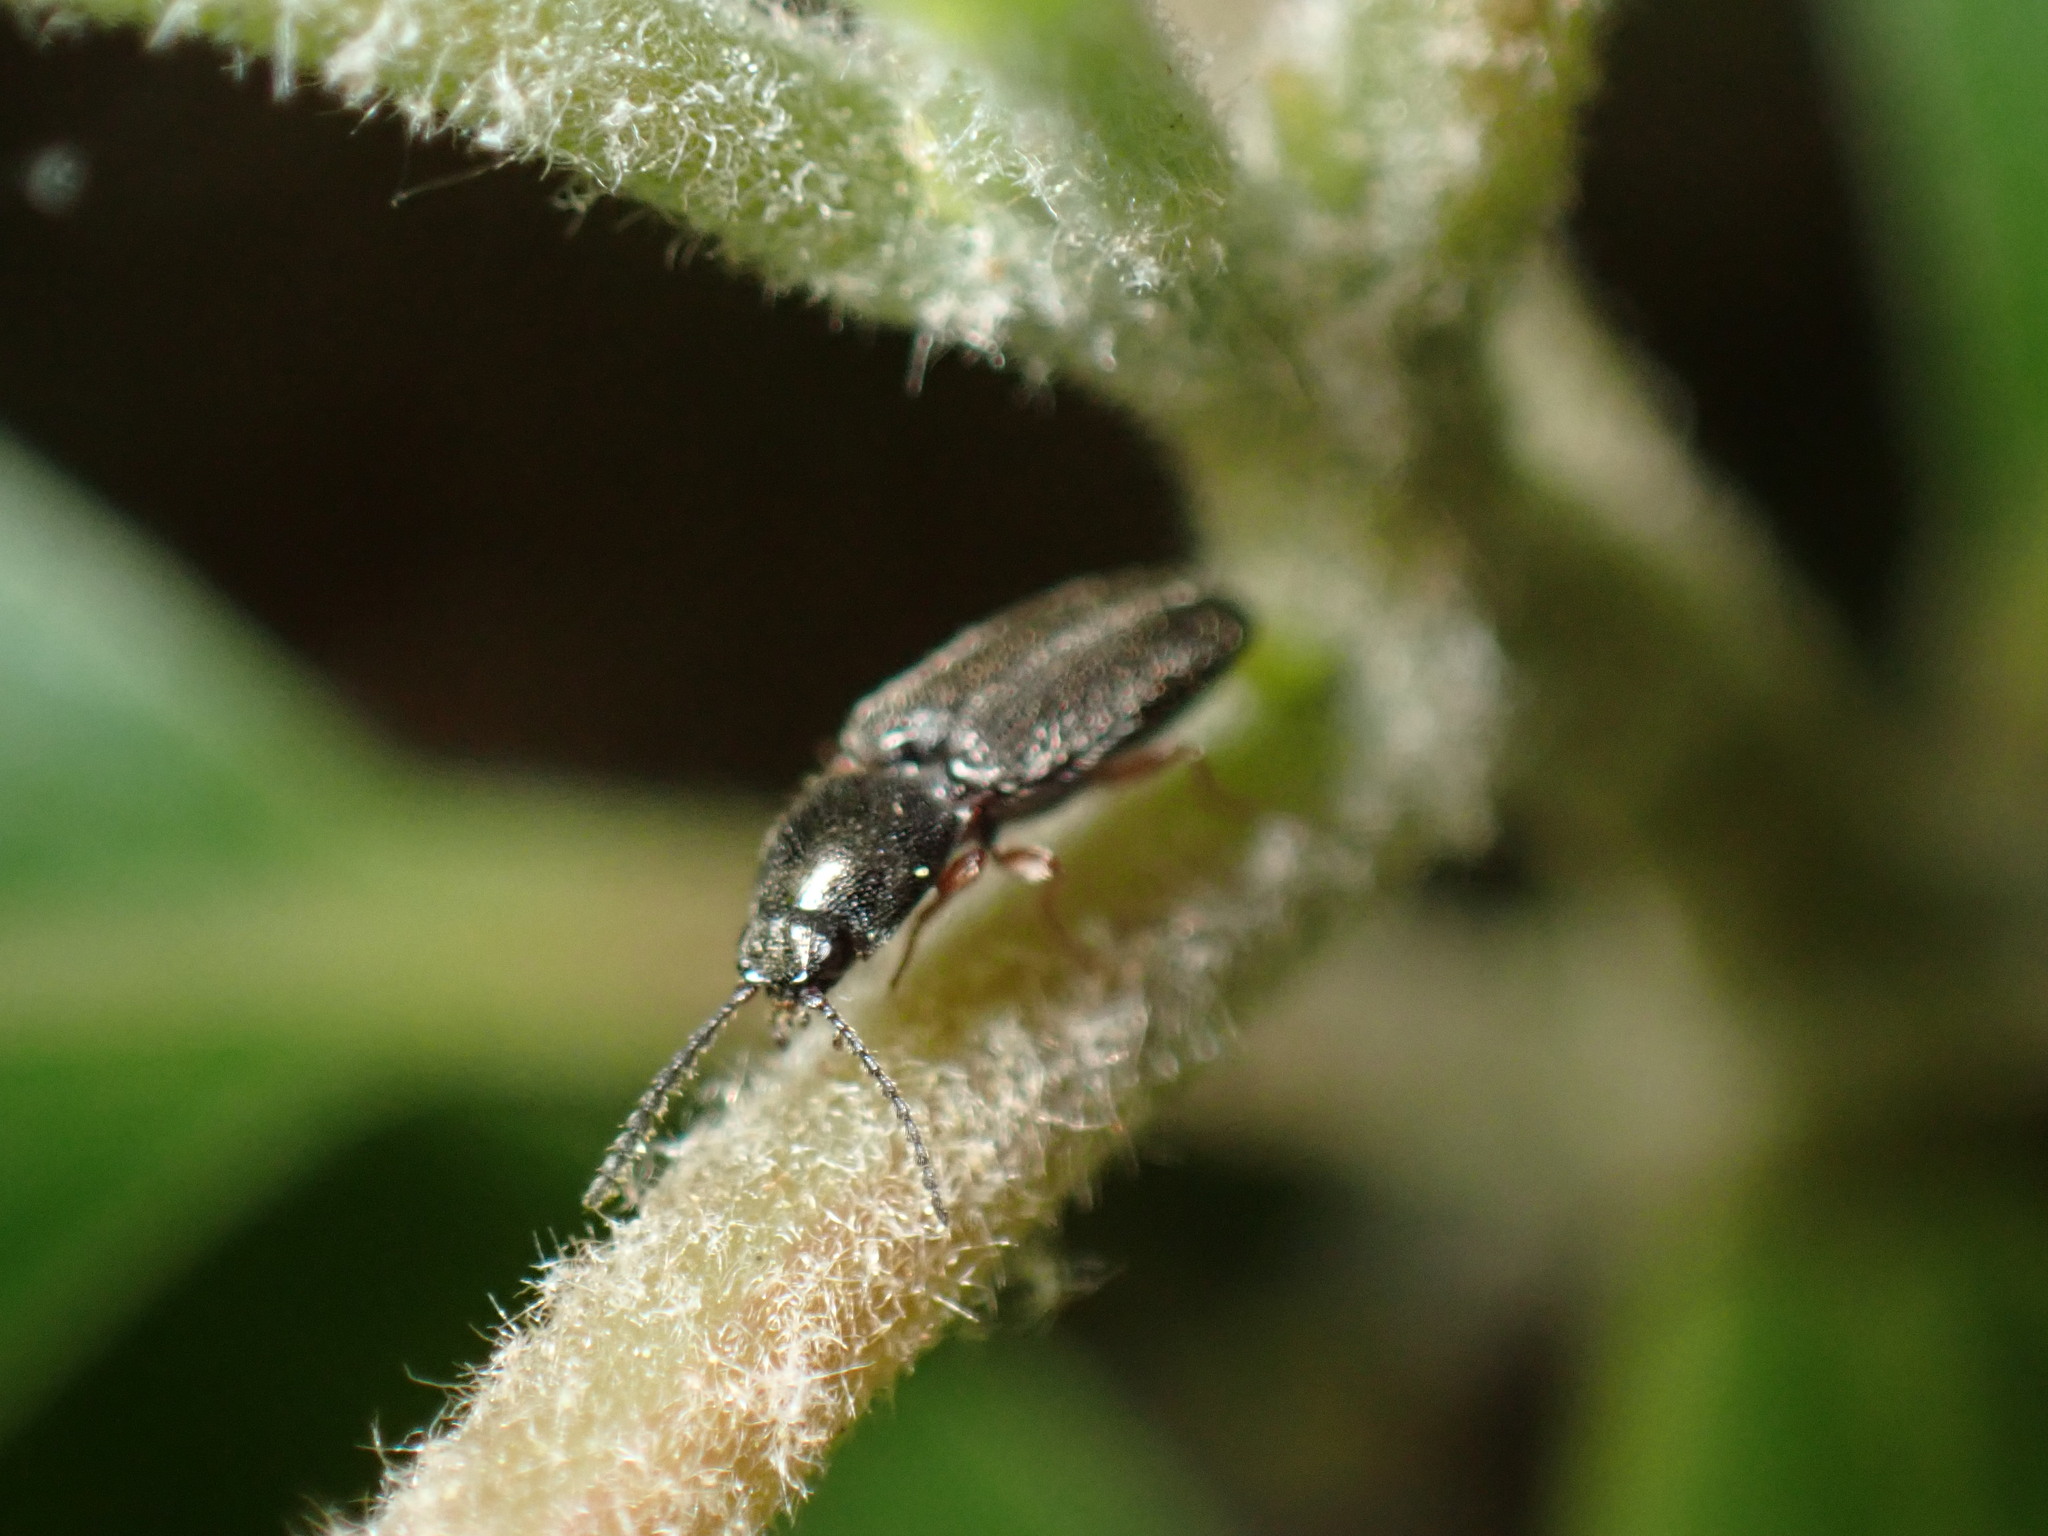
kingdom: Animalia
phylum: Arthropoda
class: Insecta
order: Coleoptera
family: Elateridae
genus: Limonius
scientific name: Limonius basilaris
